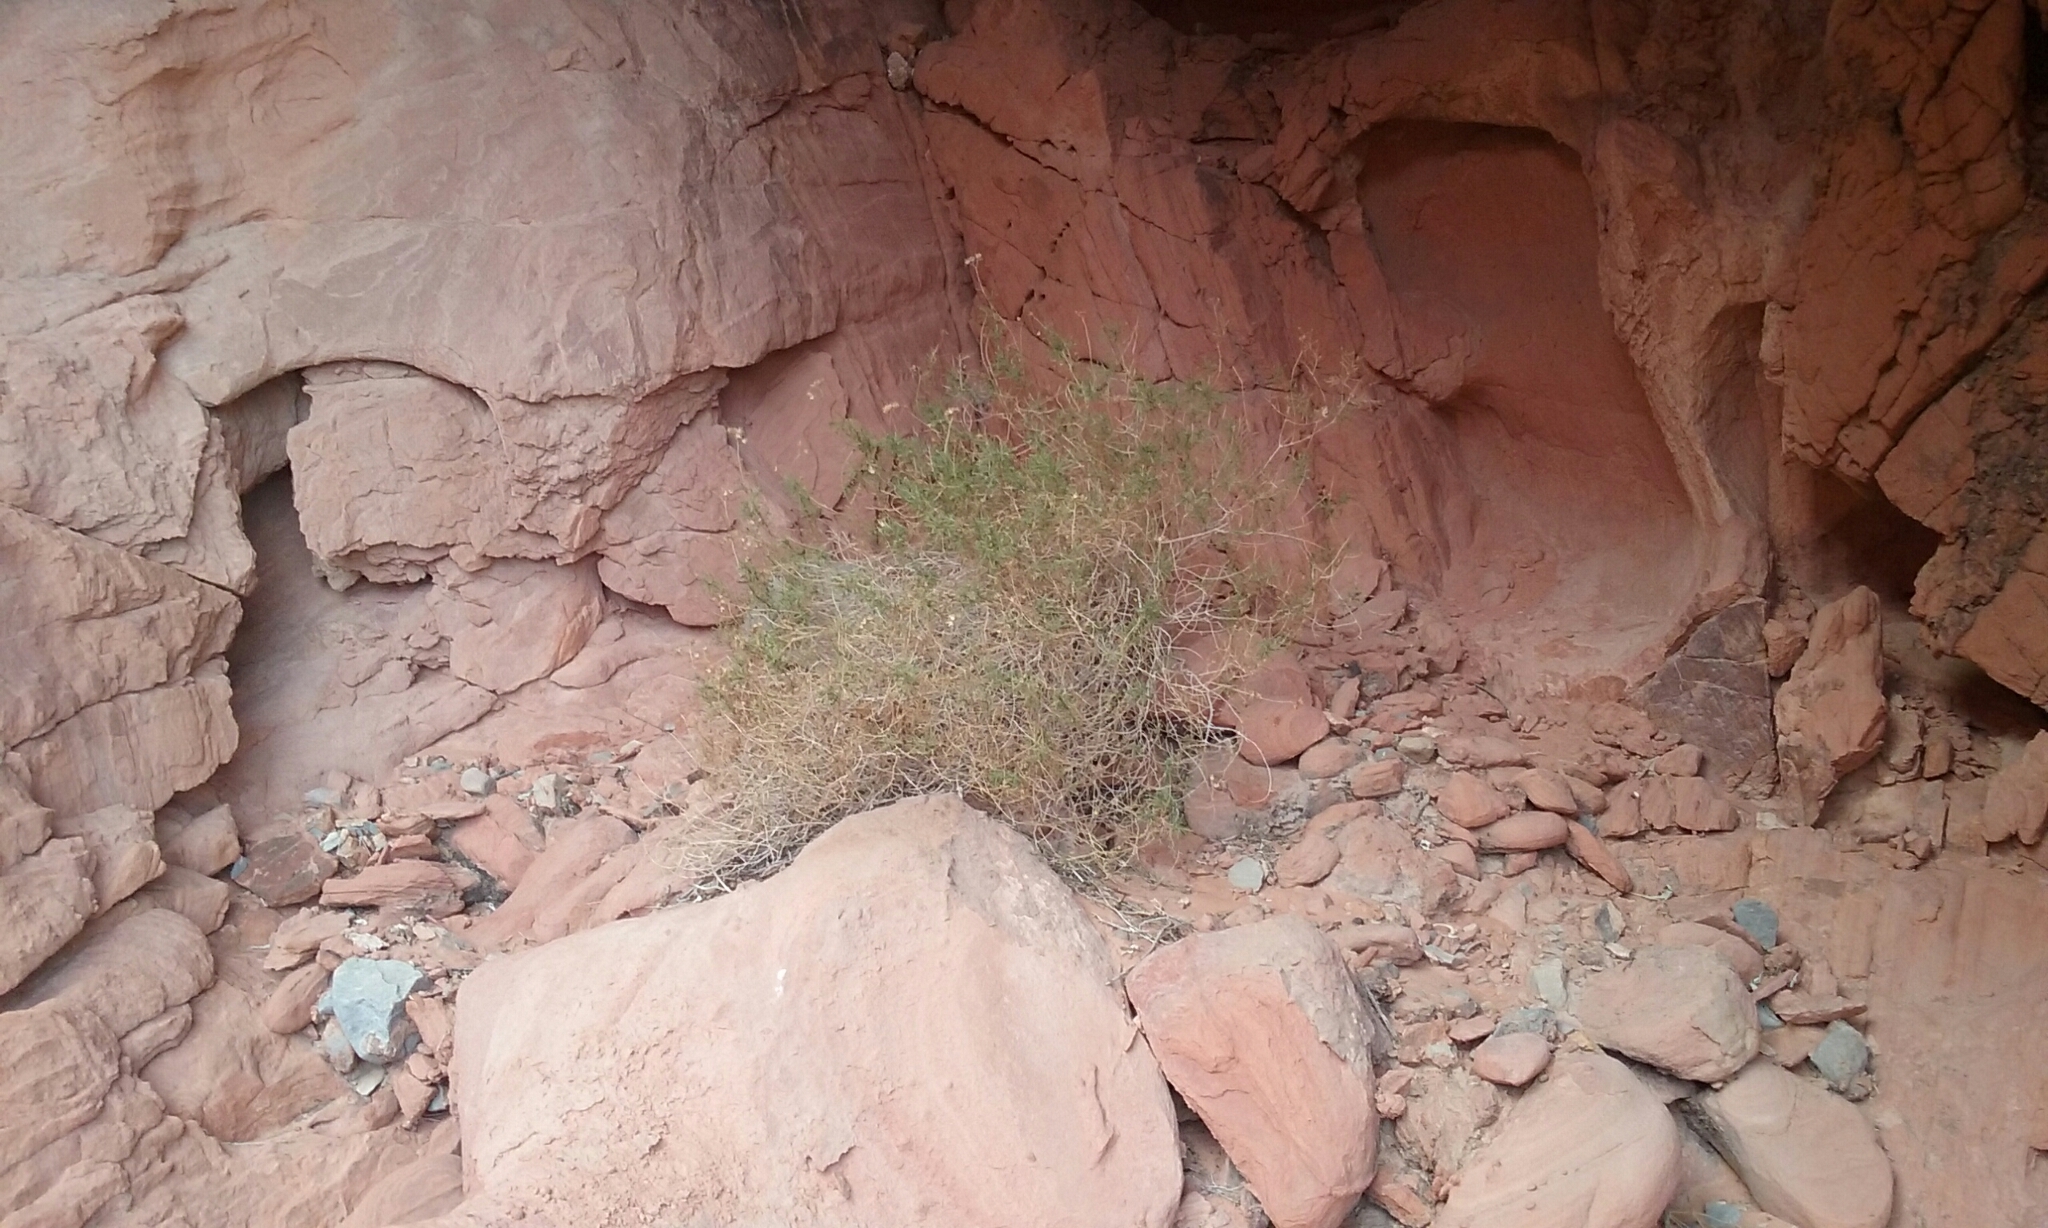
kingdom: Plantae
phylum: Tracheophyta
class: Magnoliopsida
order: Asterales
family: Asteraceae
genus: Pleurocoronis
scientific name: Pleurocoronis pluriseta
